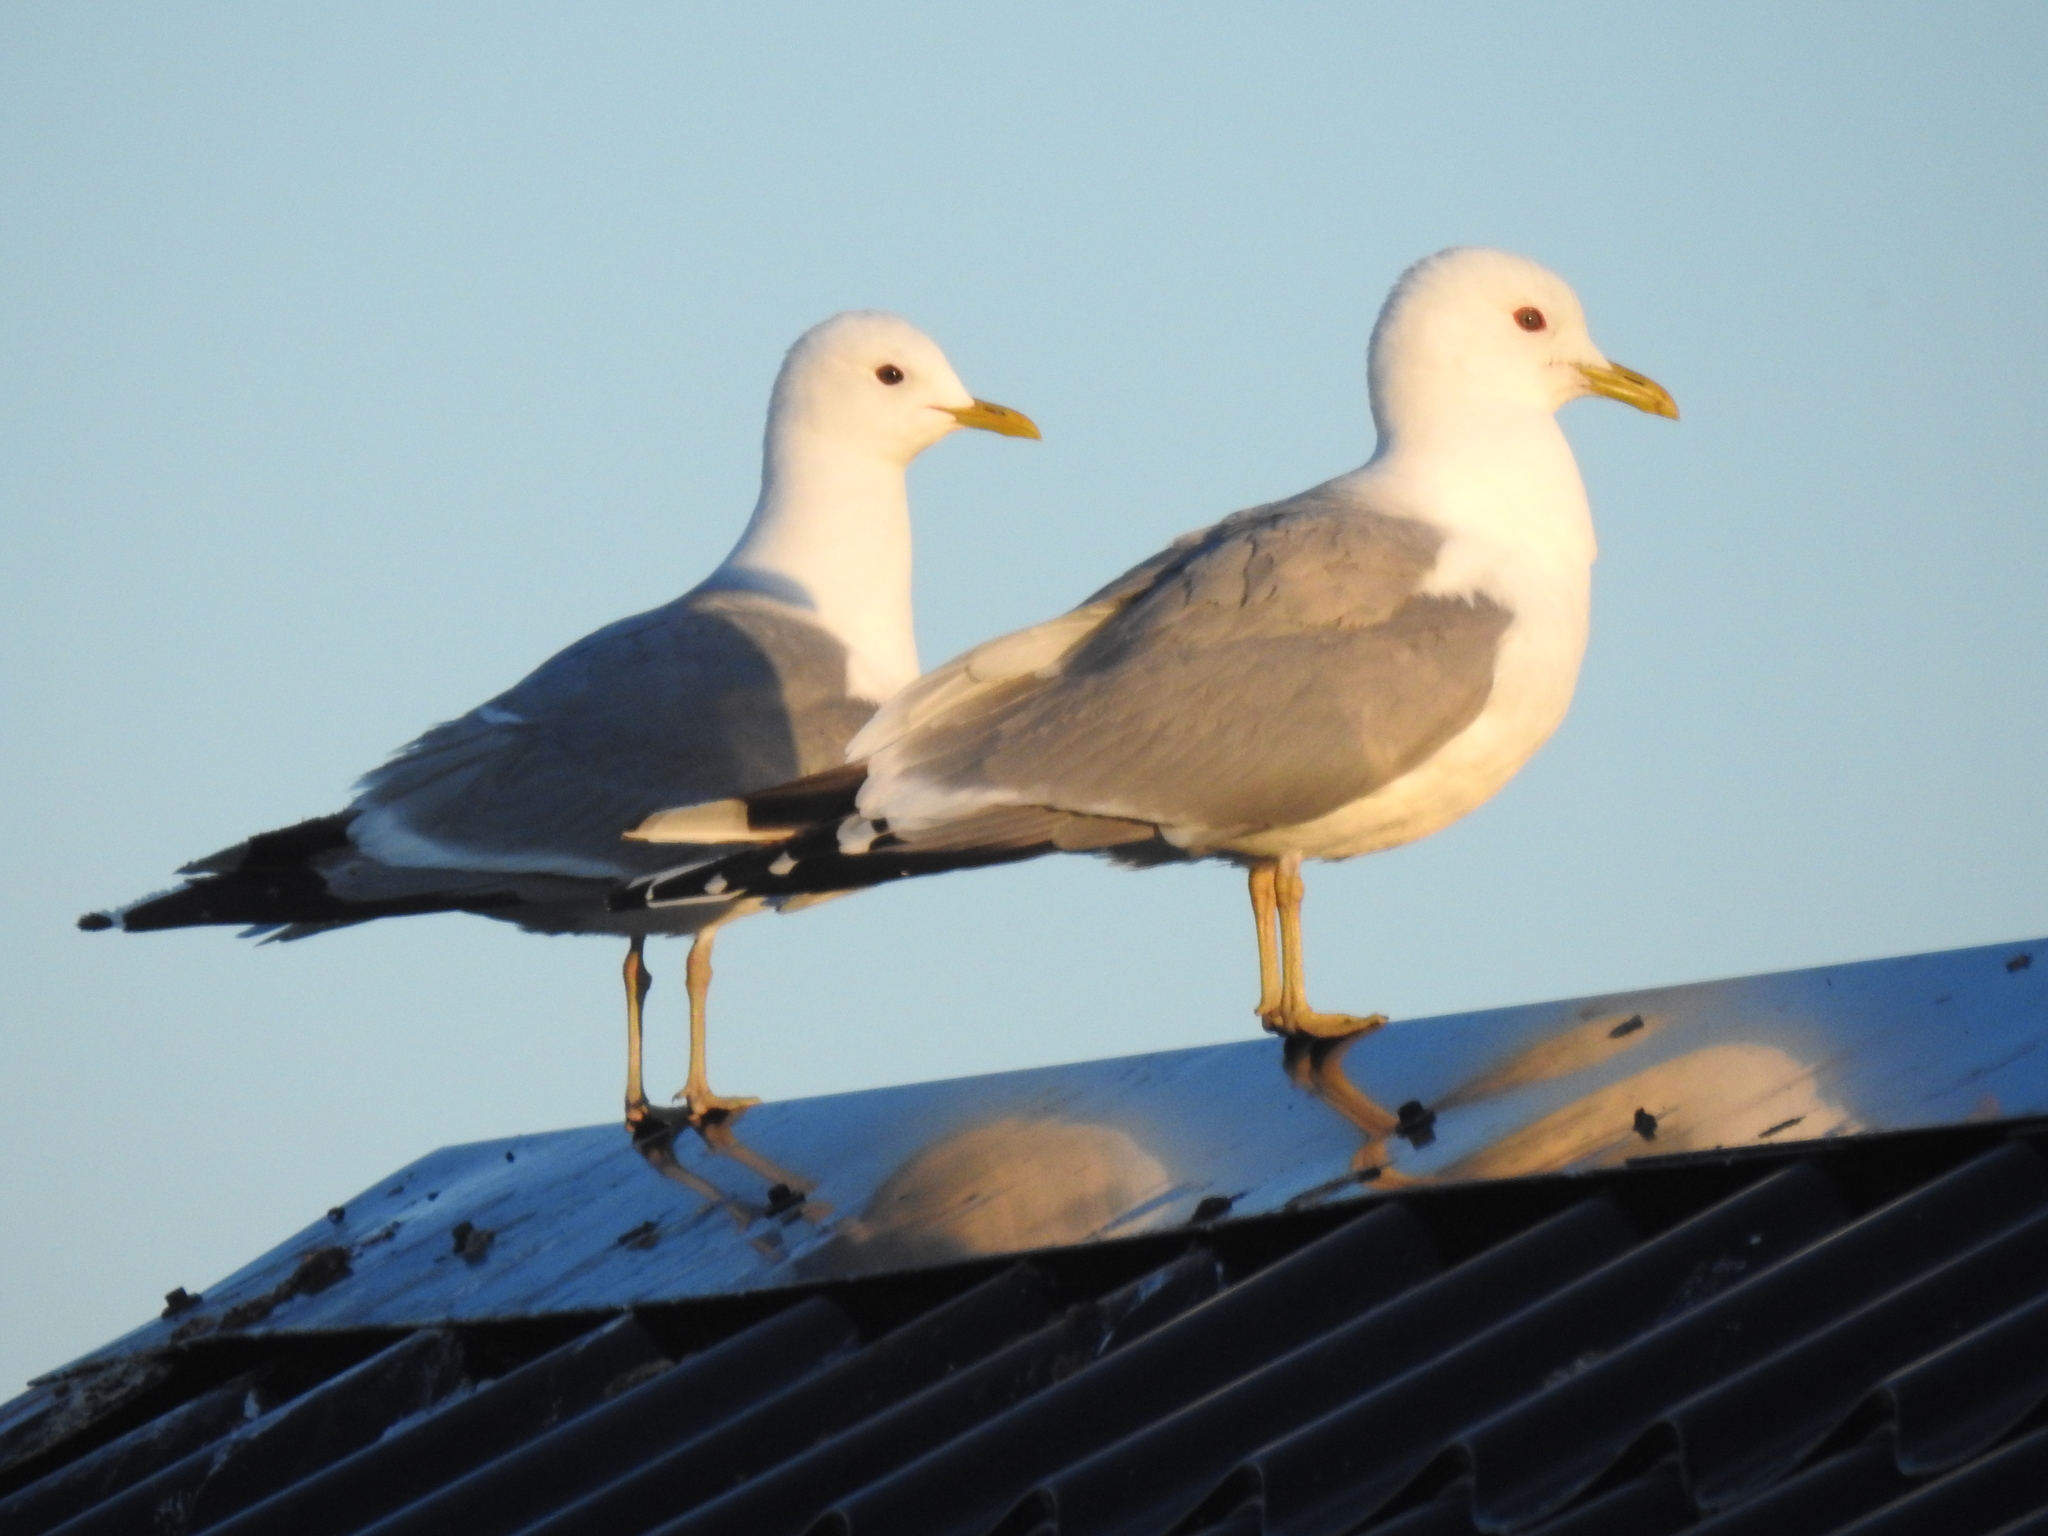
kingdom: Animalia
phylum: Chordata
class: Aves
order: Charadriiformes
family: Laridae
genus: Larus
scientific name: Larus canus
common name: Mew gull
